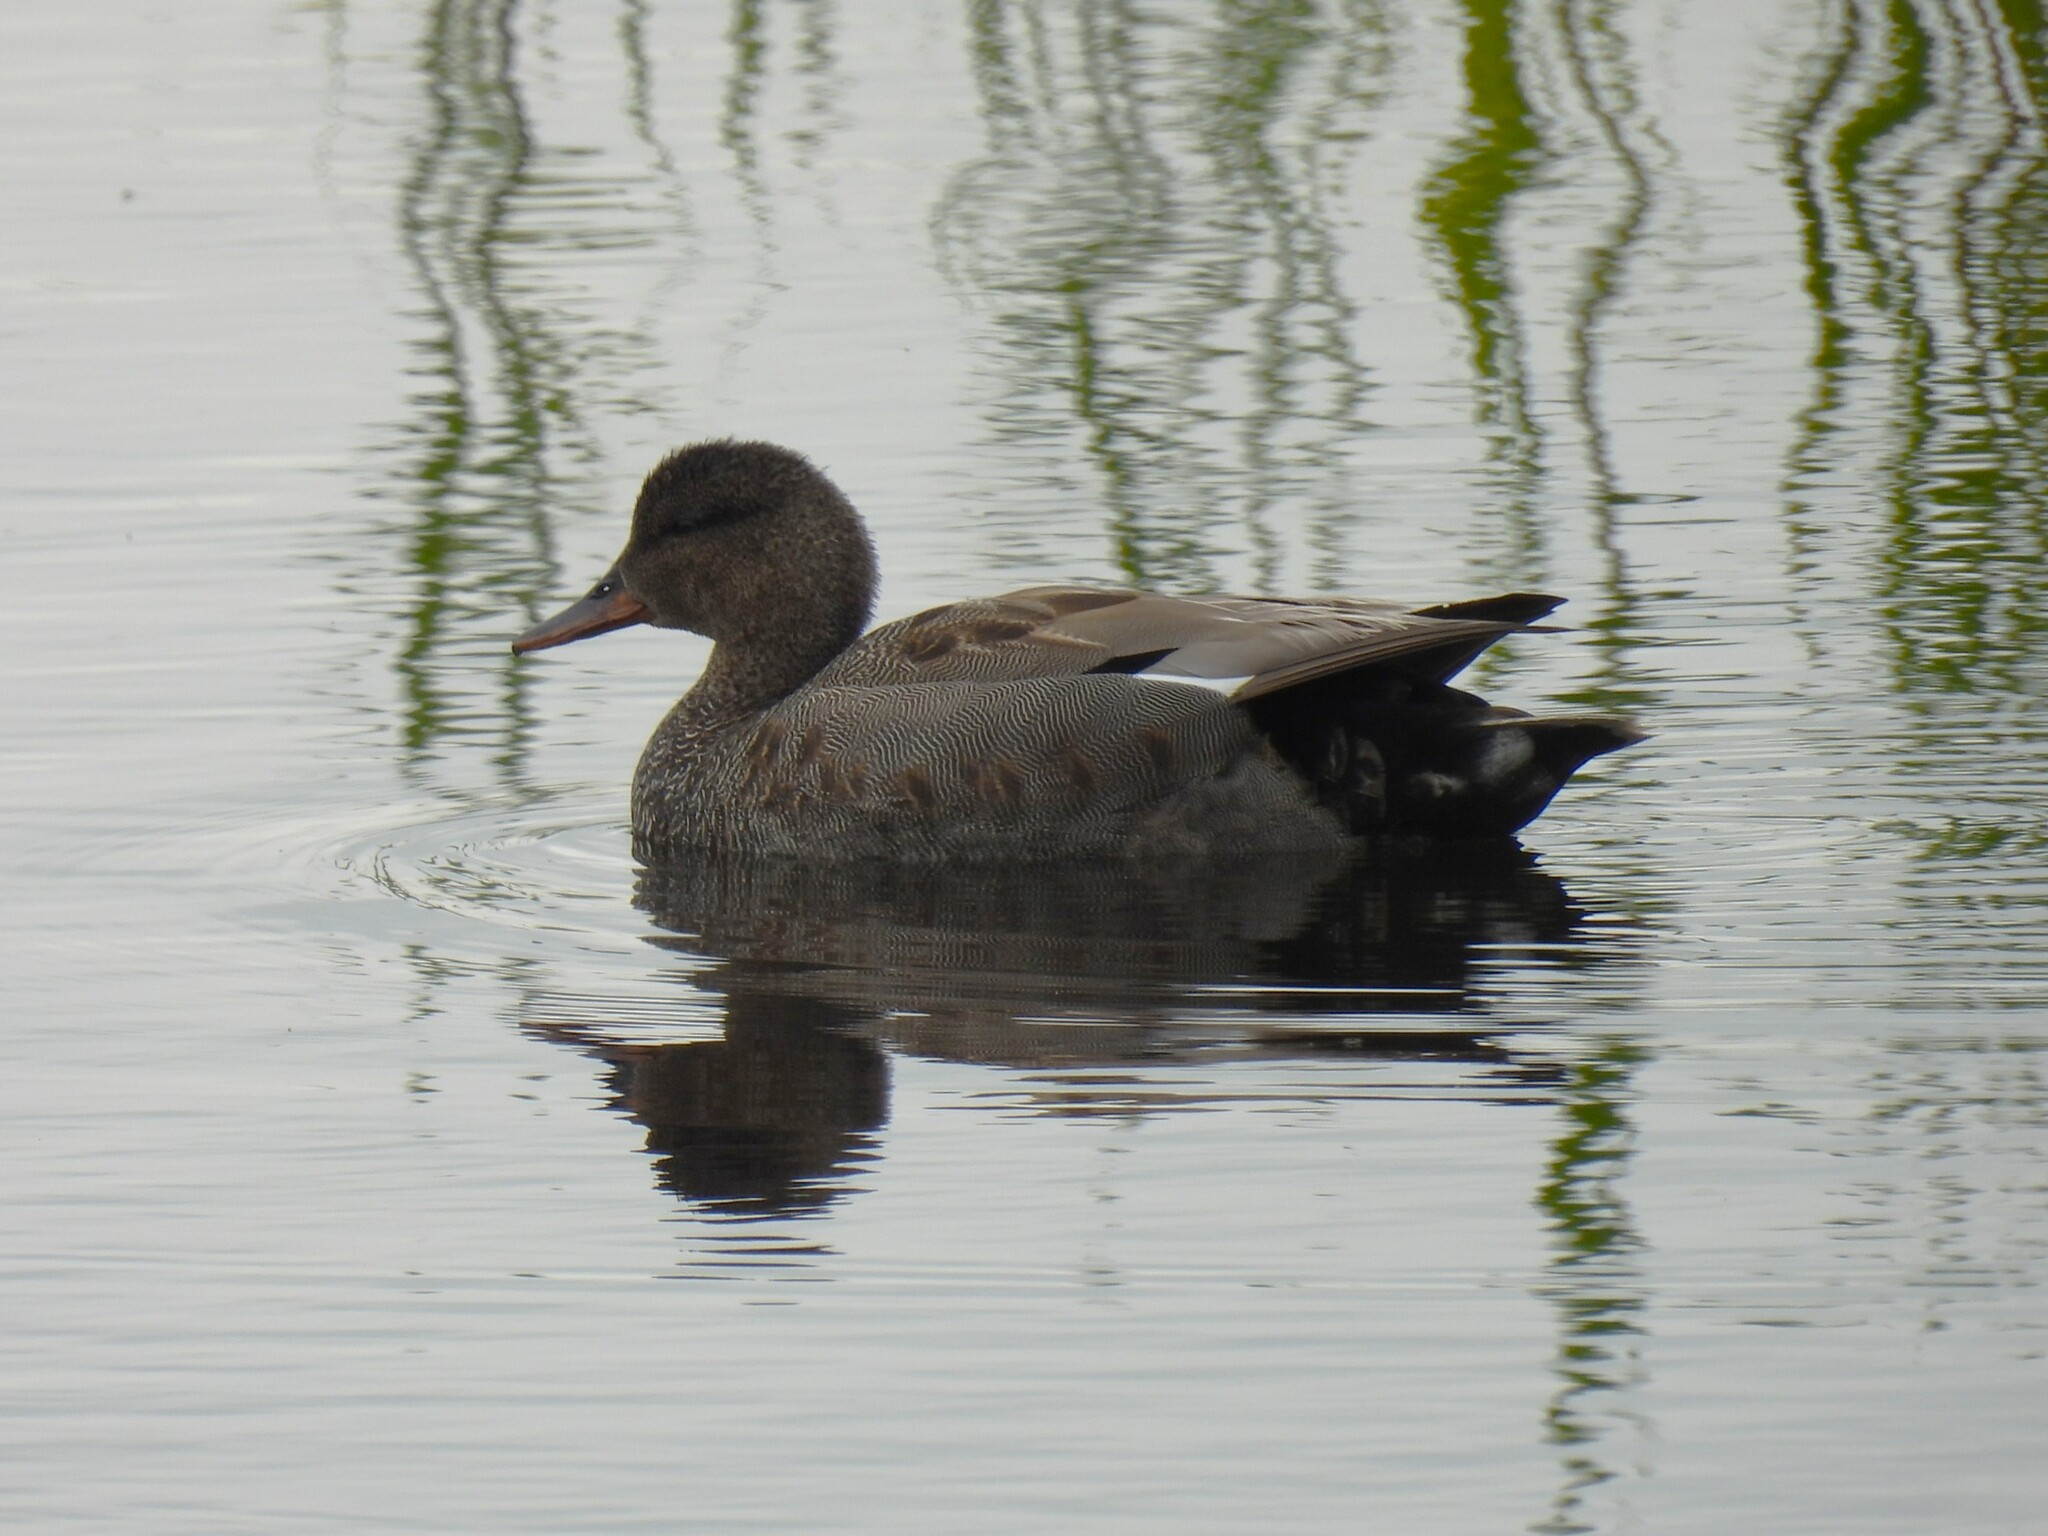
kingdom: Animalia
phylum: Chordata
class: Aves
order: Anseriformes
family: Anatidae
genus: Mareca
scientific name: Mareca strepera
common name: Gadwall
